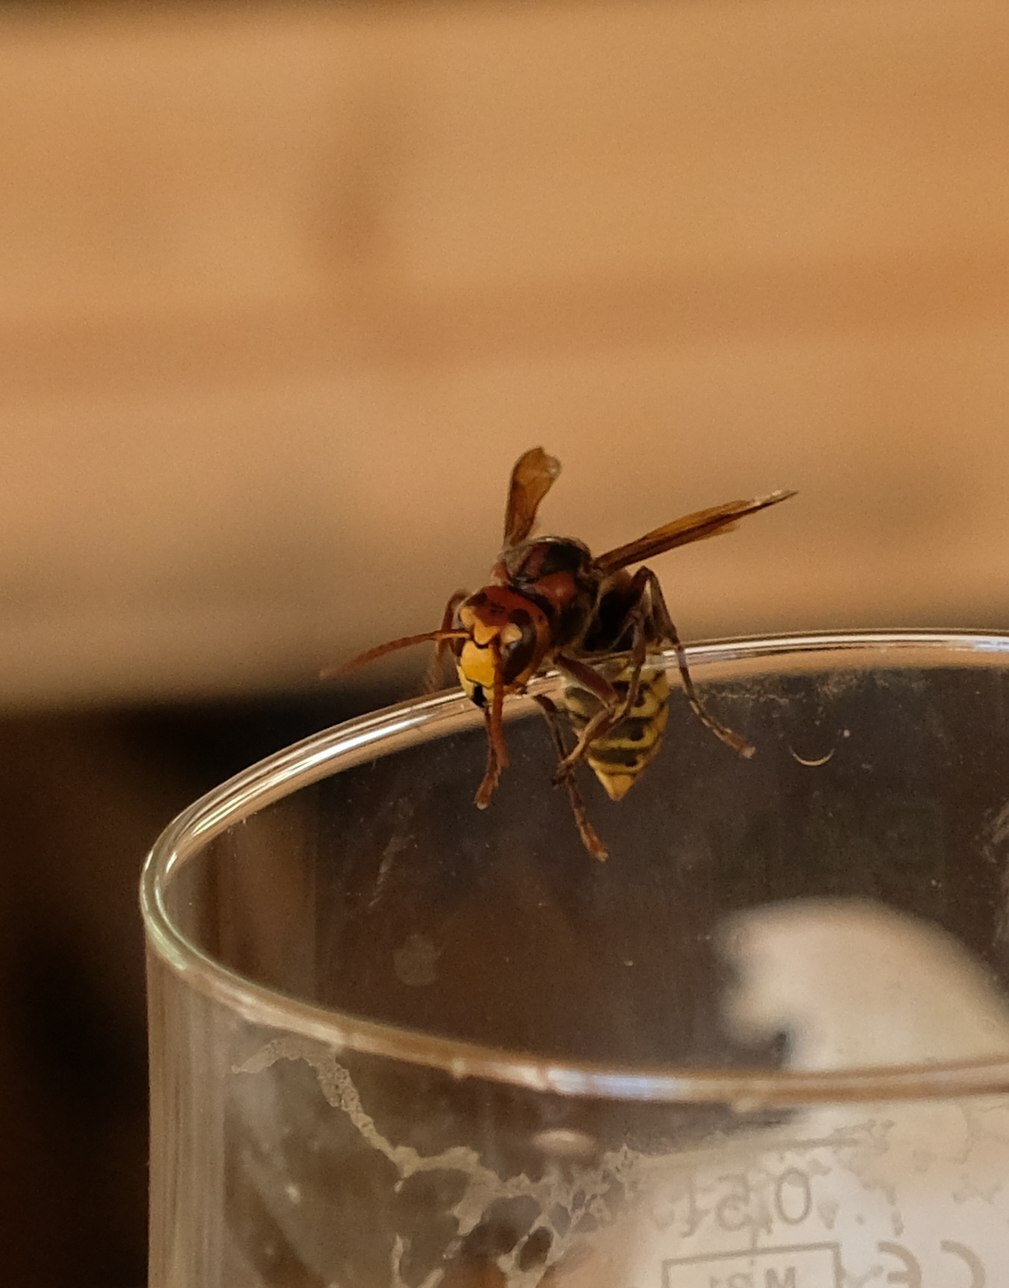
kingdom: Animalia
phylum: Arthropoda
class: Insecta
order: Hymenoptera
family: Vespidae
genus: Vespa
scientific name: Vespa crabro
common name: Hornet
